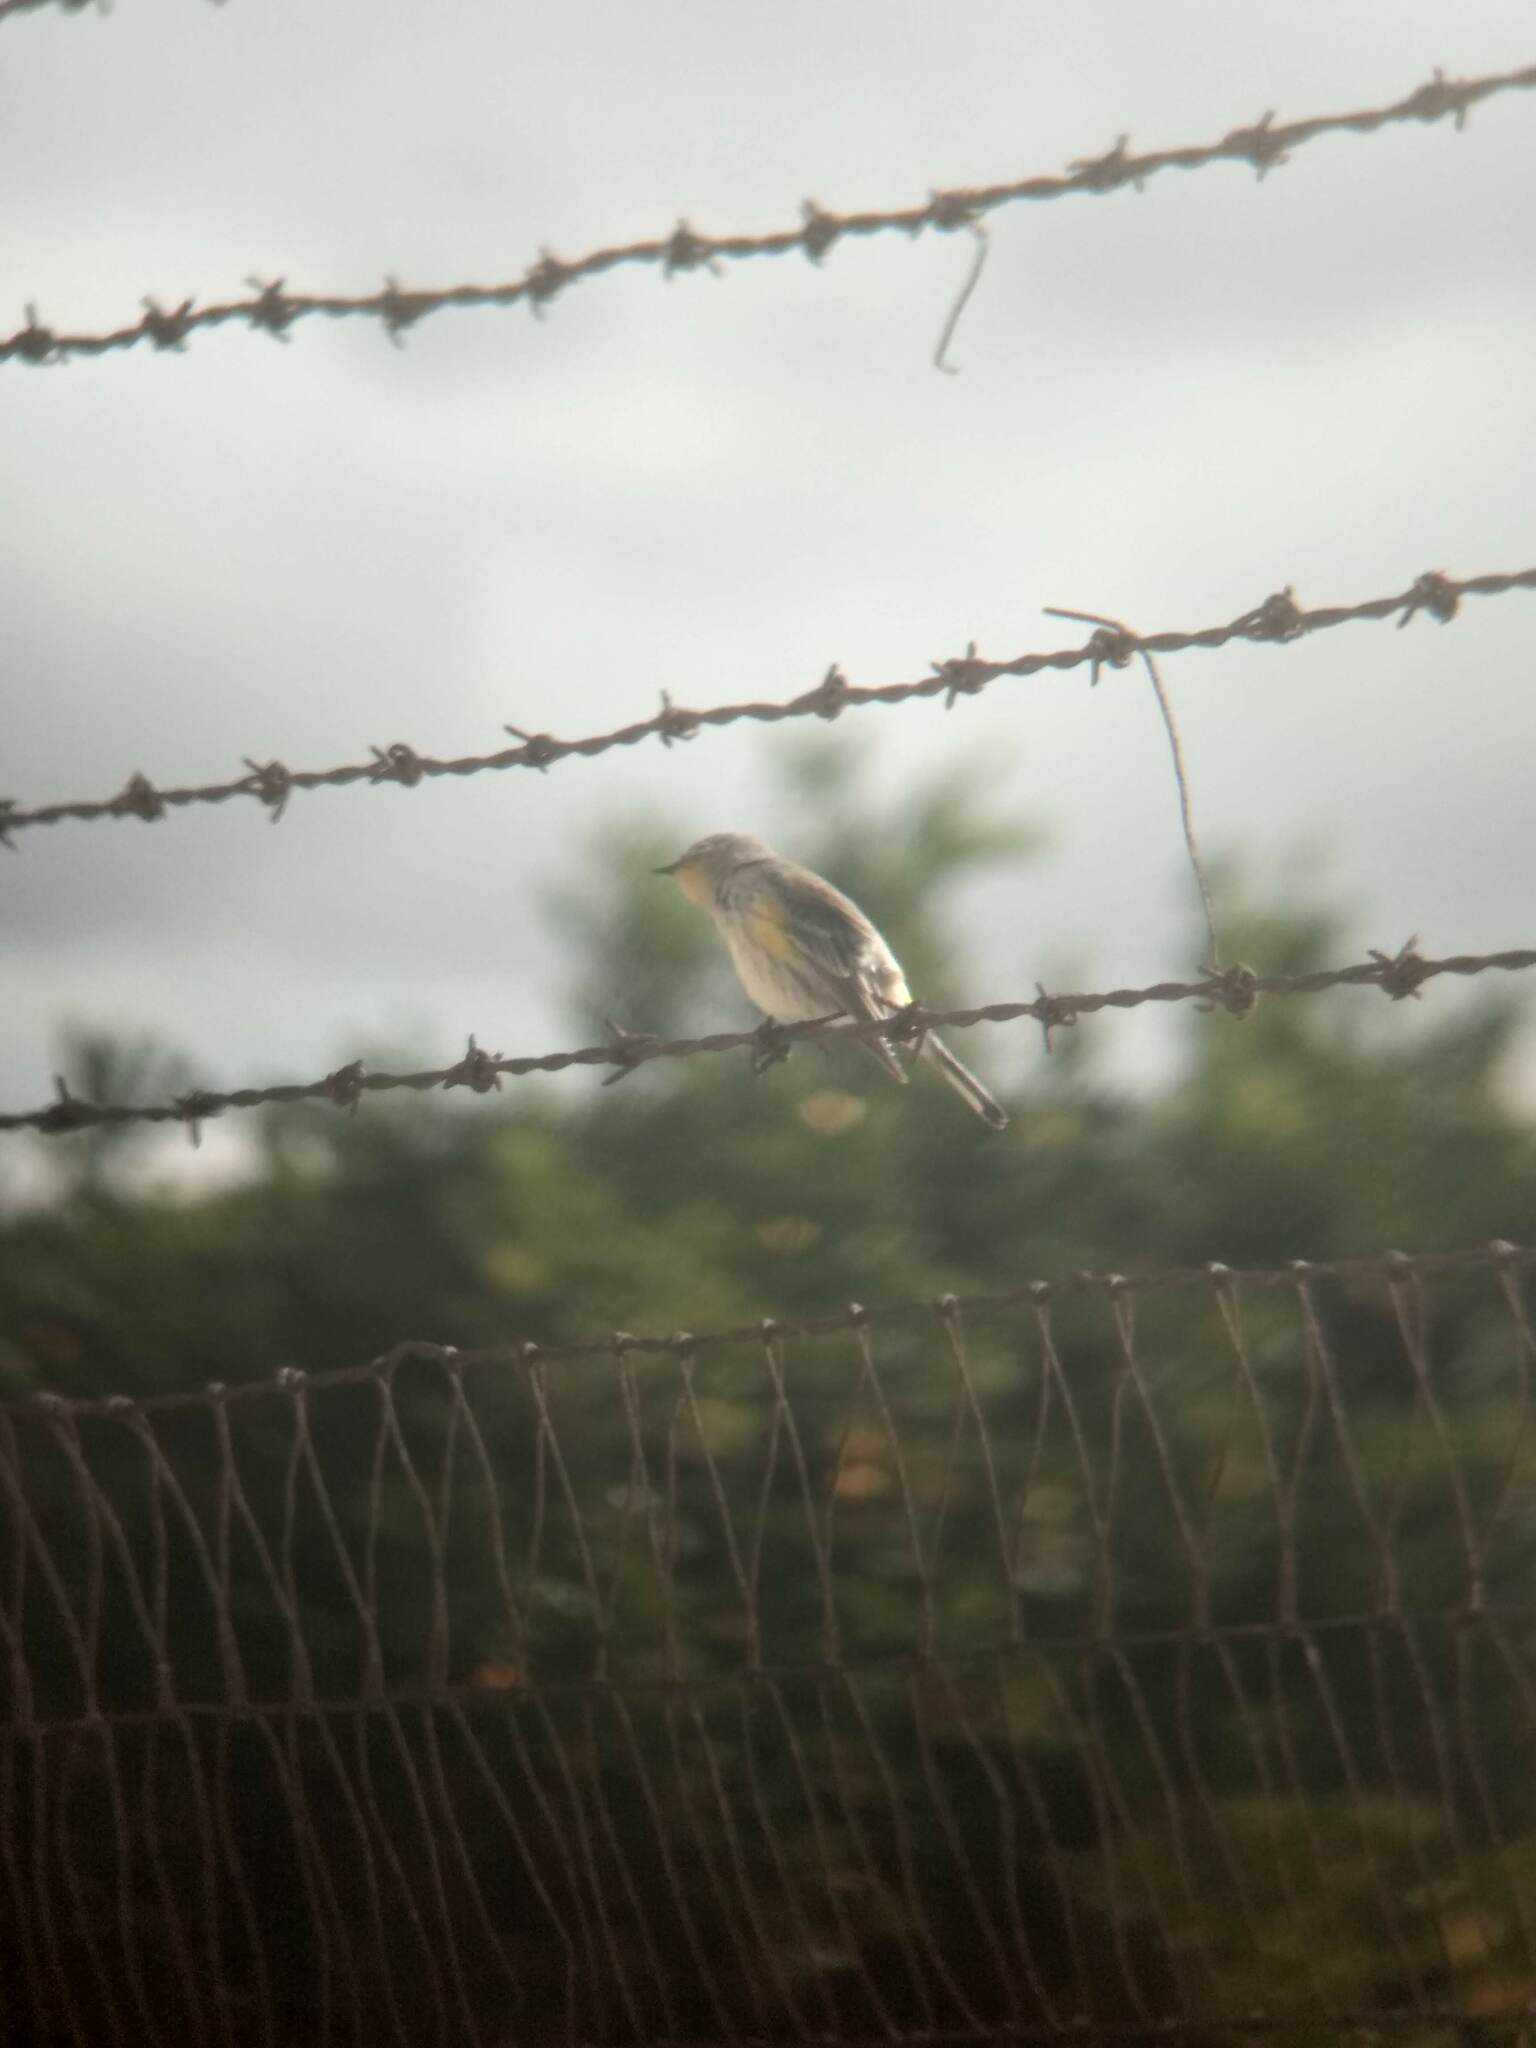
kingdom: Animalia
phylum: Chordata
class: Aves
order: Passeriformes
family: Parulidae
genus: Setophaga
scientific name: Setophaga coronata
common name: Myrtle warbler
